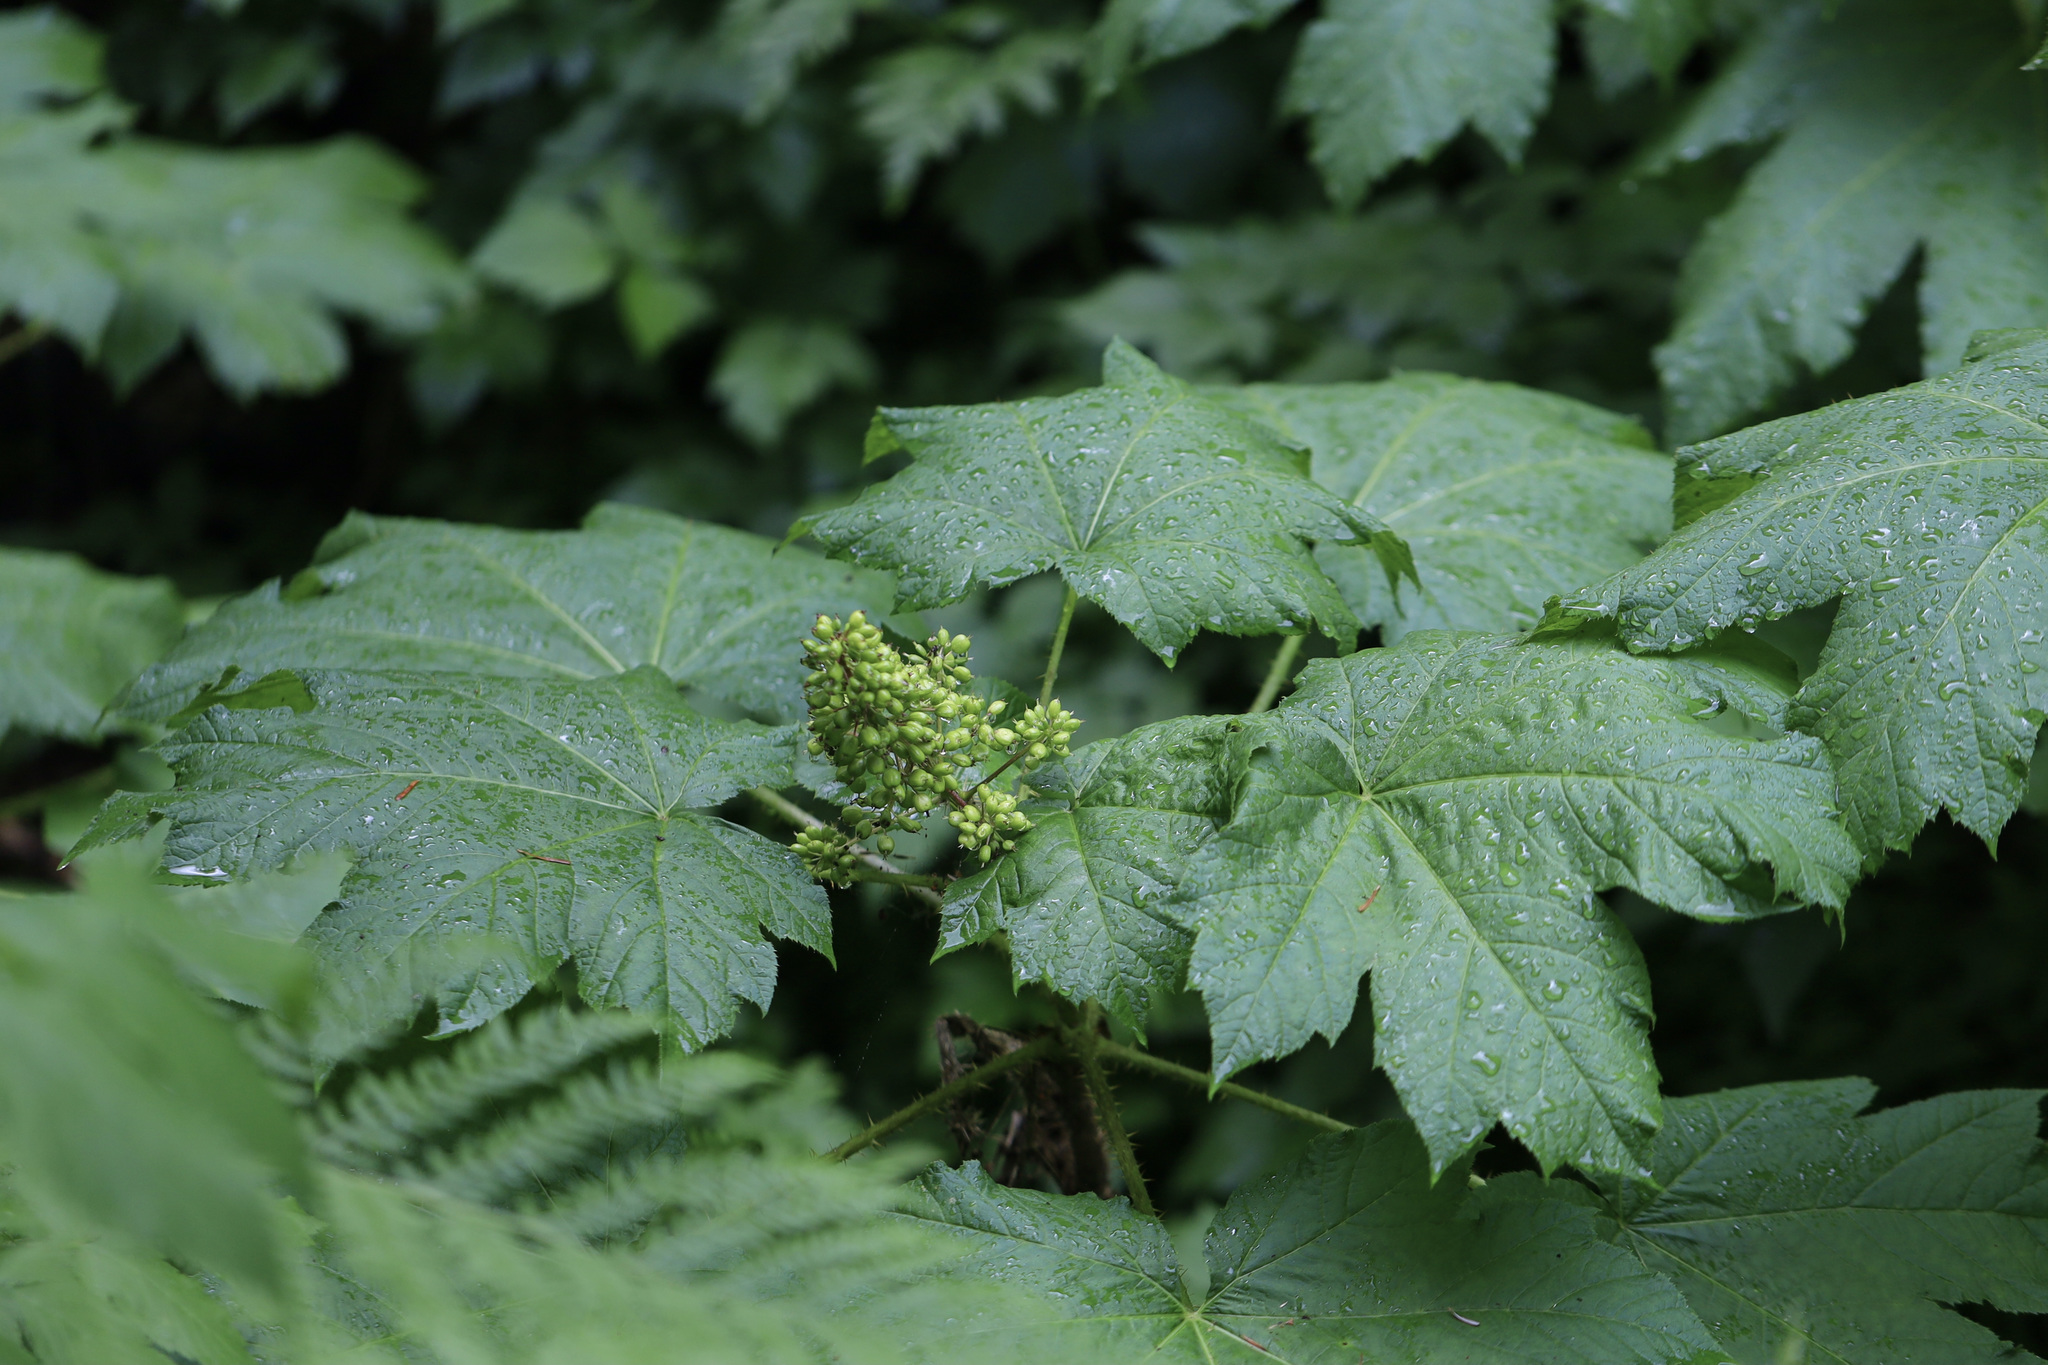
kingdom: Plantae
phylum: Tracheophyta
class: Magnoliopsida
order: Apiales
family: Araliaceae
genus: Oplopanax
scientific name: Oplopanax horridus
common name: Devil's walking-stick
